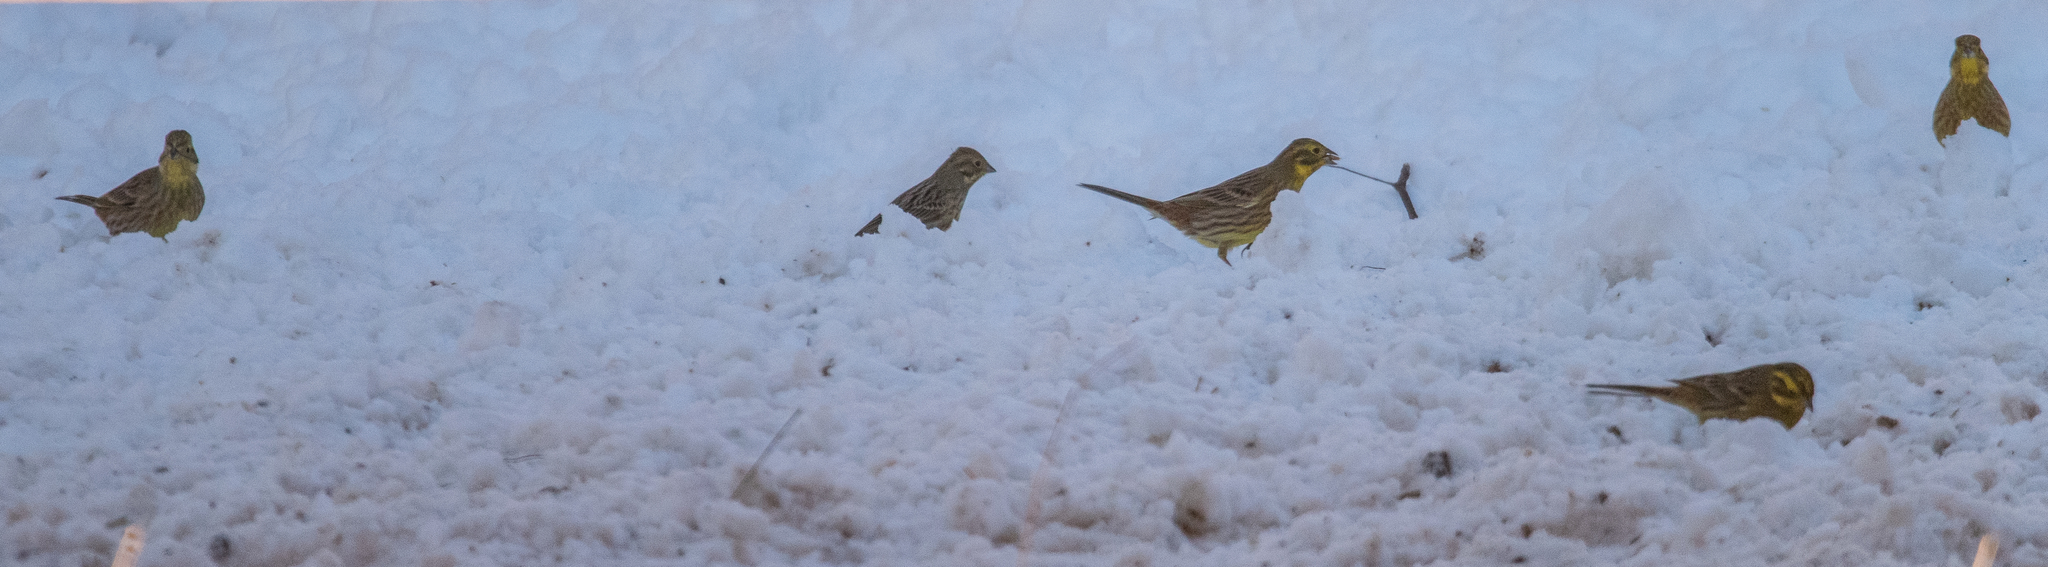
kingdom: Animalia
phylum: Chordata
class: Aves
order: Passeriformes
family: Emberizidae
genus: Emberiza
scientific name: Emberiza citrinella
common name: Yellowhammer
